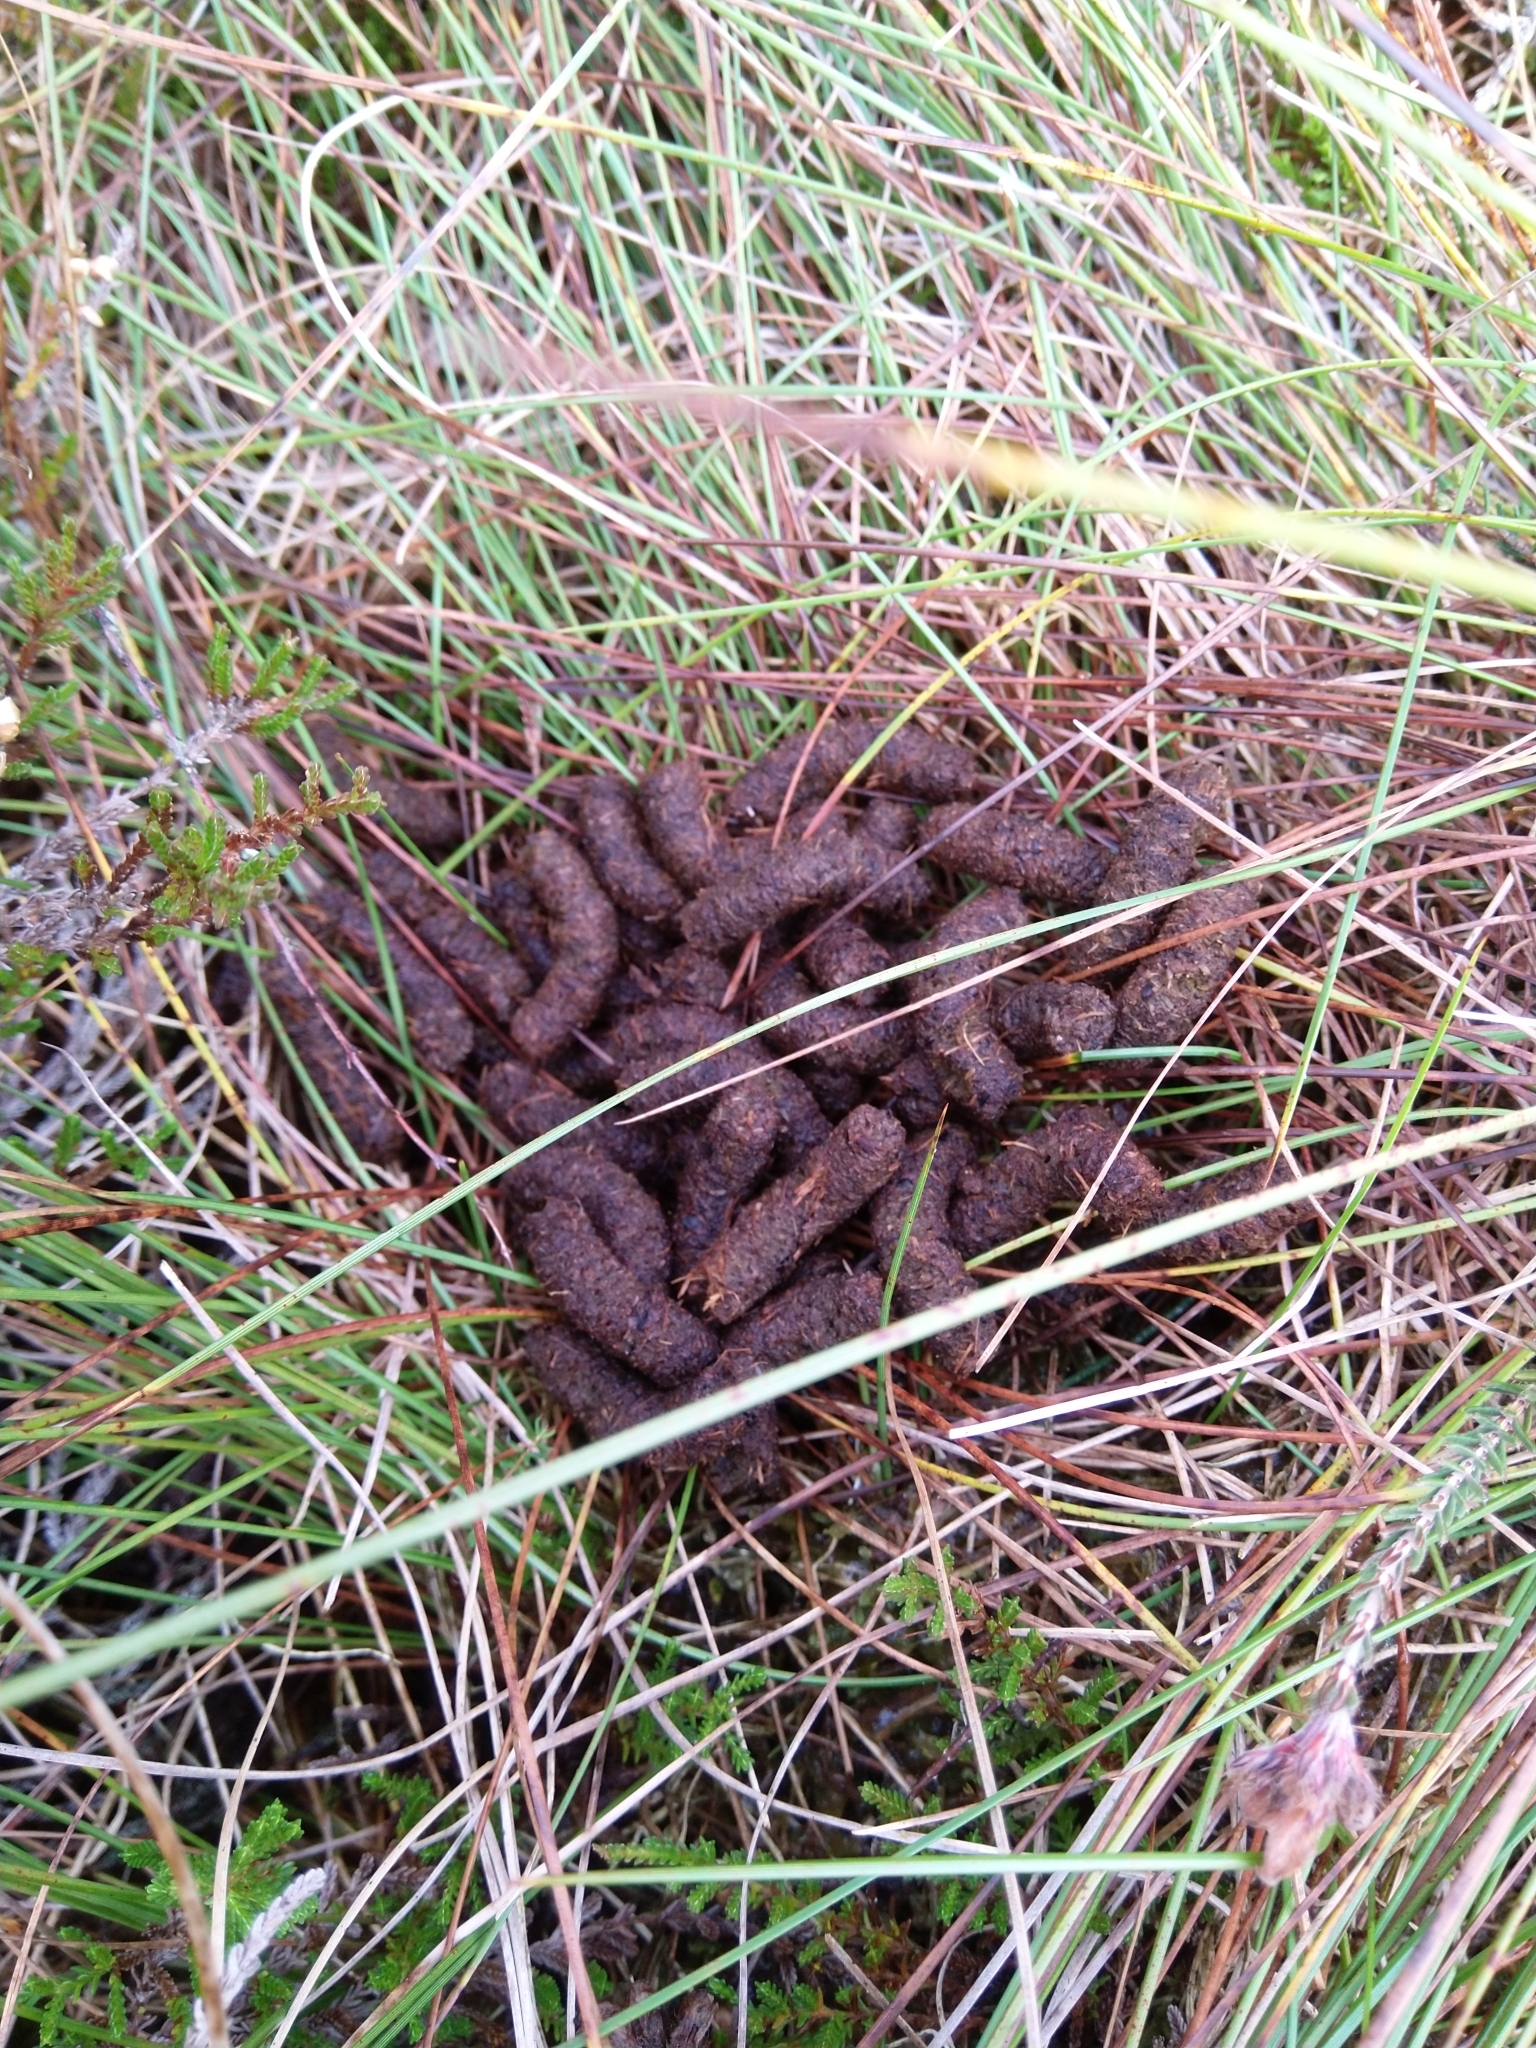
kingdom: Animalia
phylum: Chordata
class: Aves
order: Galliformes
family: Phasianidae
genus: Lagopus
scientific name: Lagopus lagopus
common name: Willow ptarmigan
